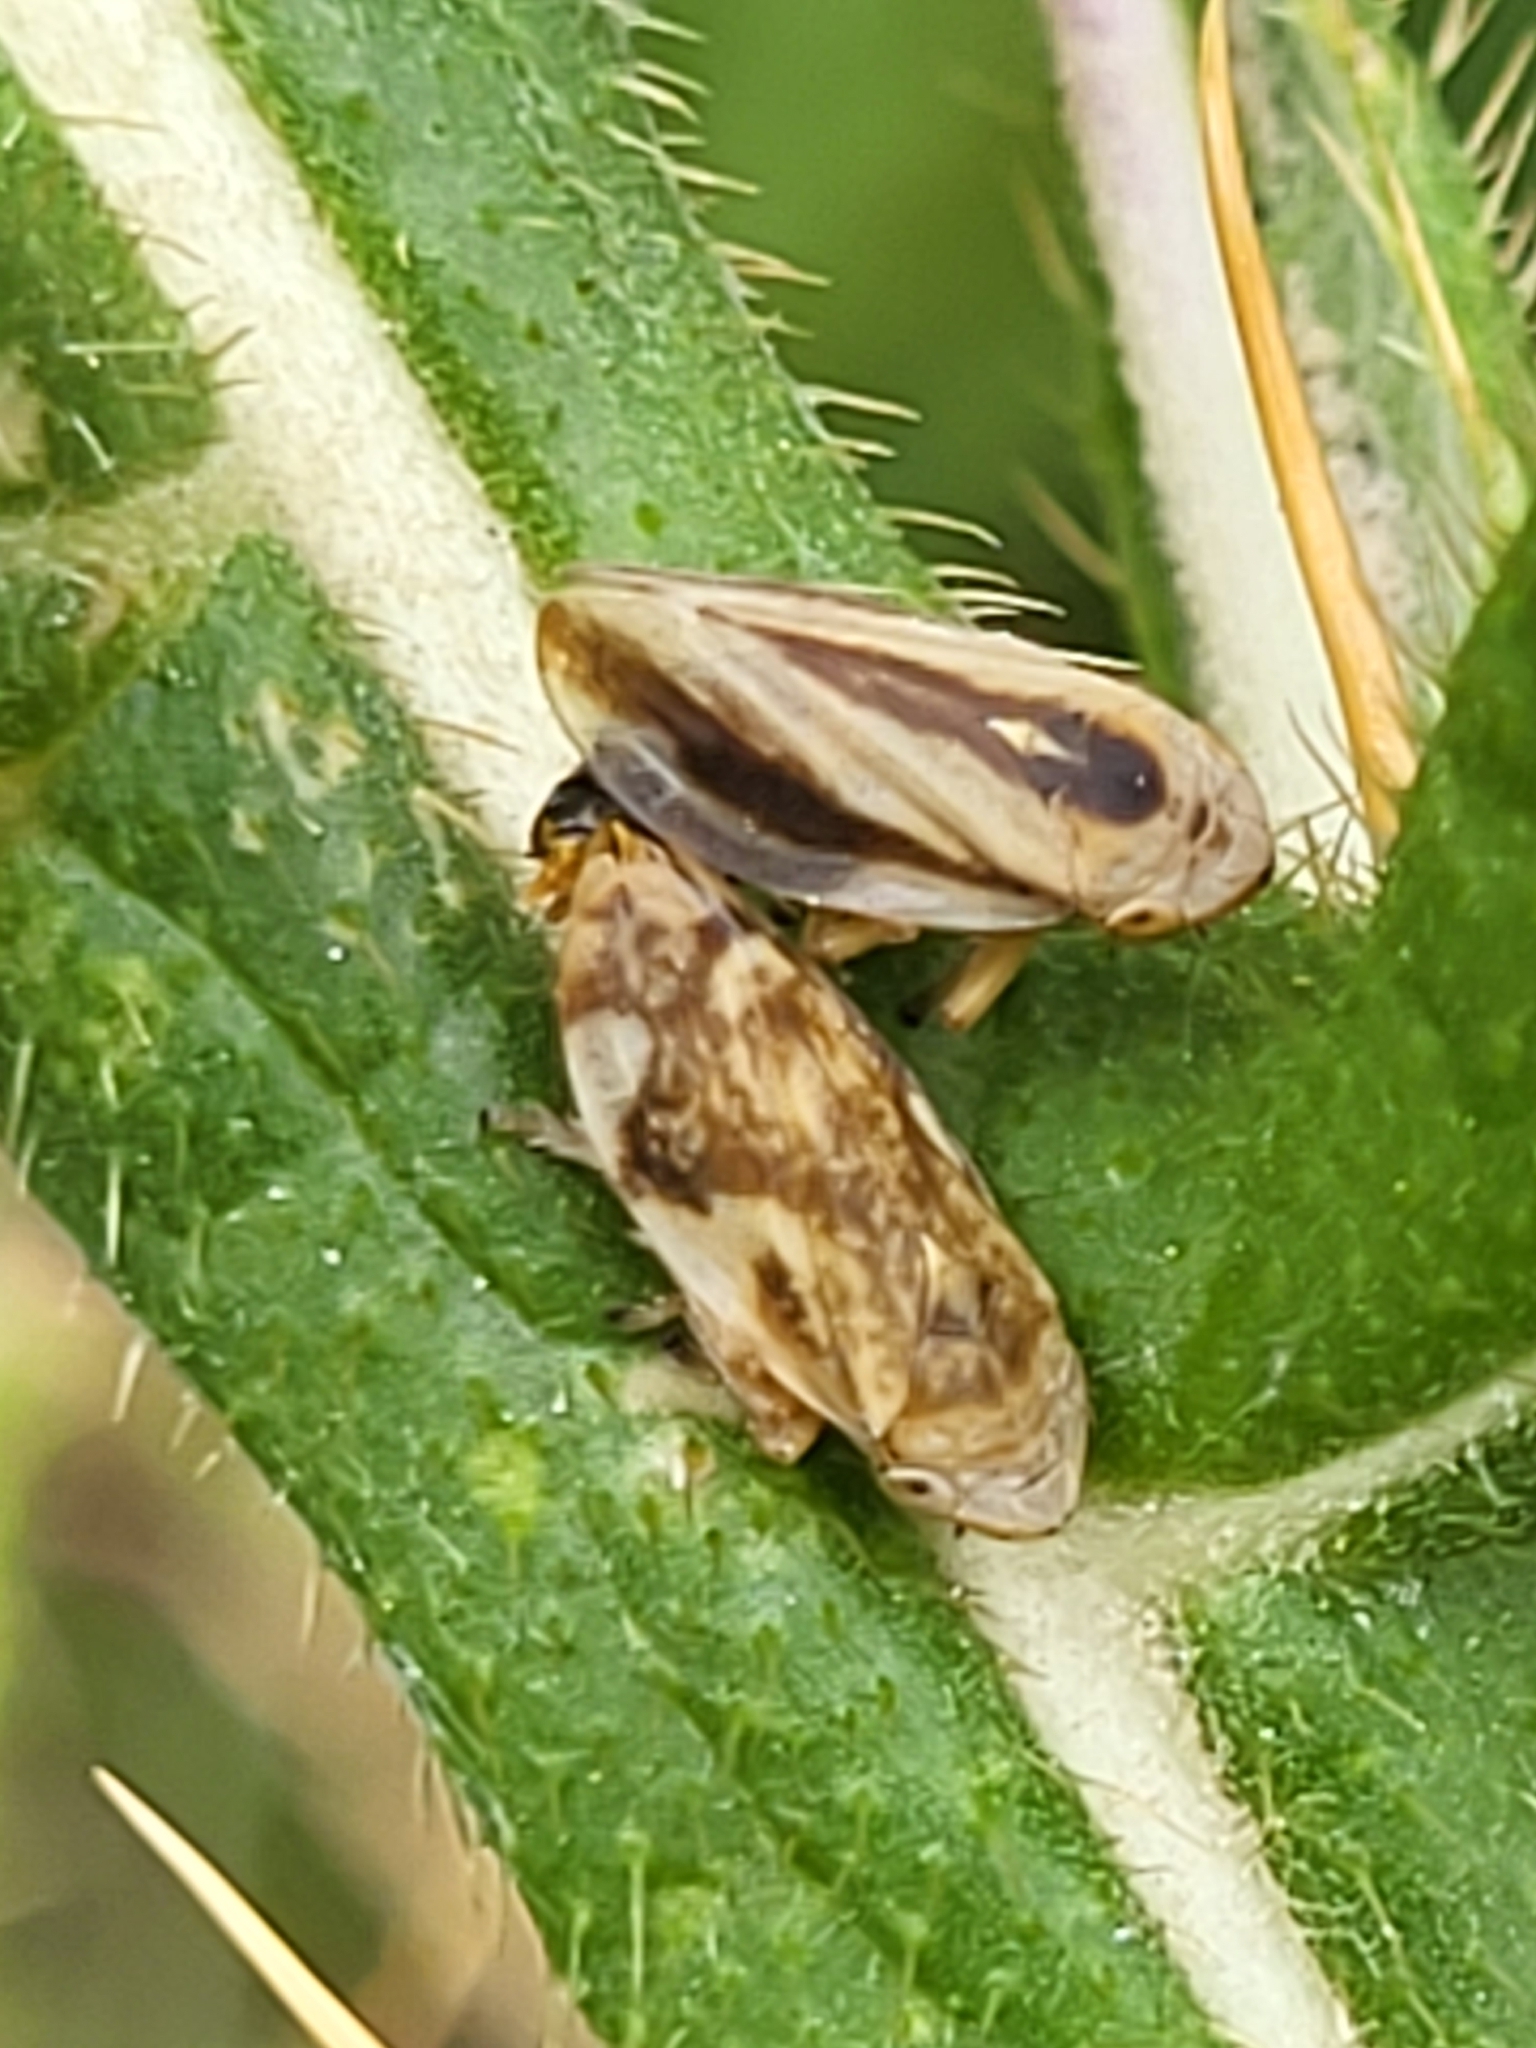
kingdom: Animalia
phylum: Arthropoda
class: Insecta
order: Hemiptera
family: Aphrophoridae
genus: Philaenus
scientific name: Philaenus spumarius
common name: Meadow spittlebug
